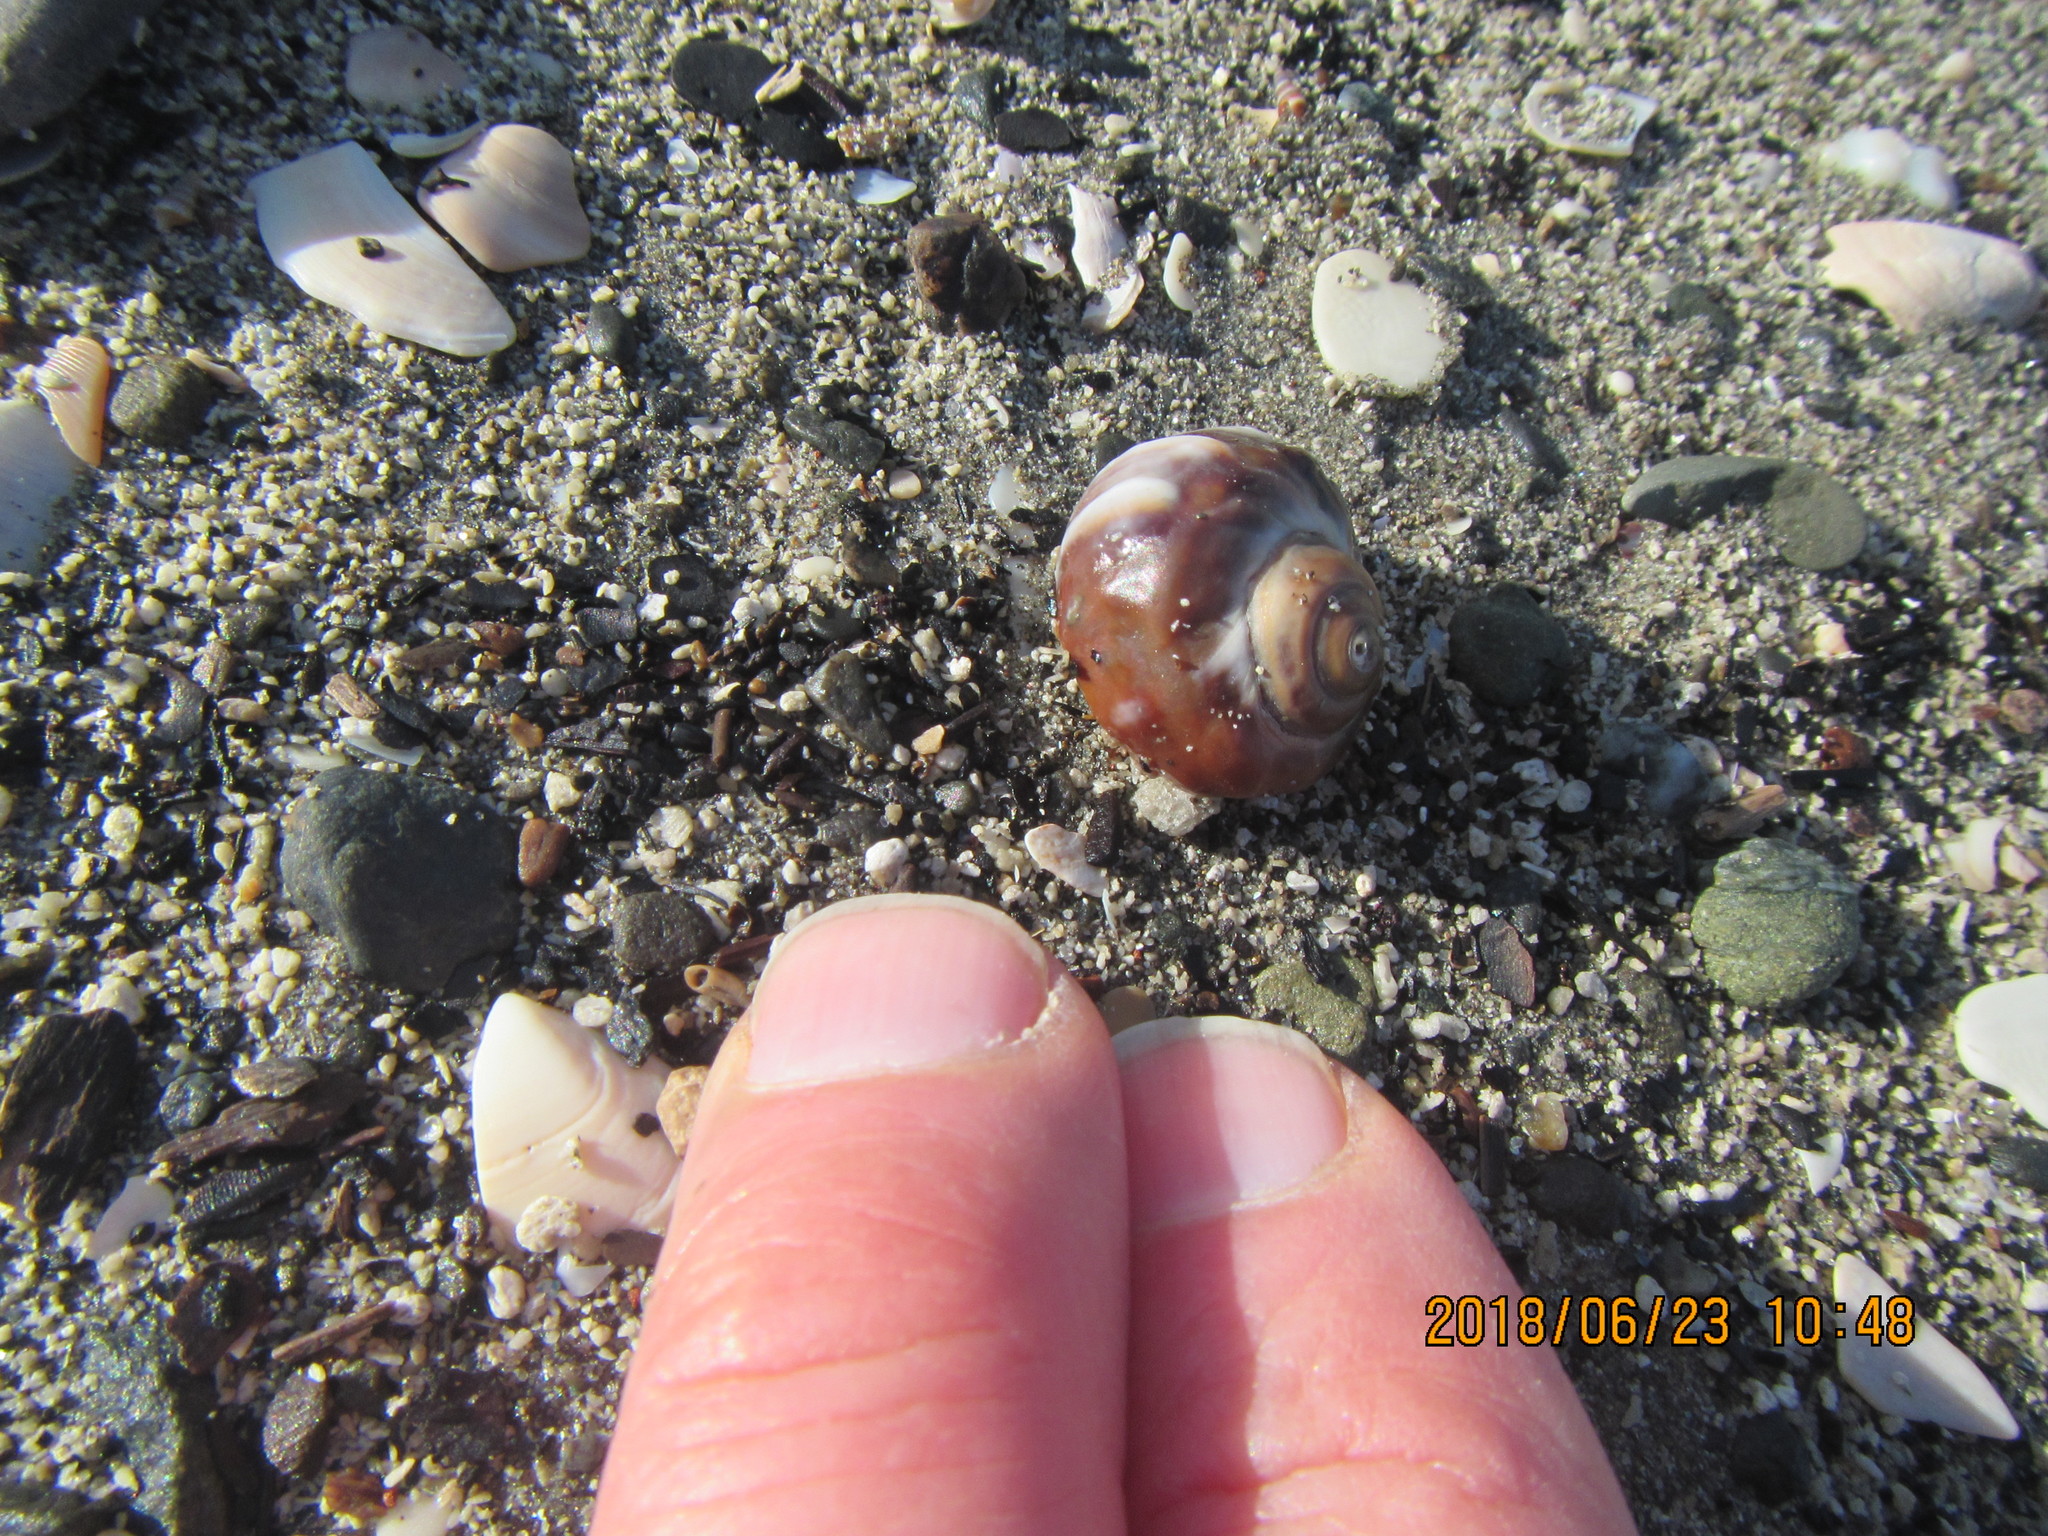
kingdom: Animalia
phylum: Mollusca
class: Gastropoda
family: Amphibolidae
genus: Amphibola
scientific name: Amphibola crenata
